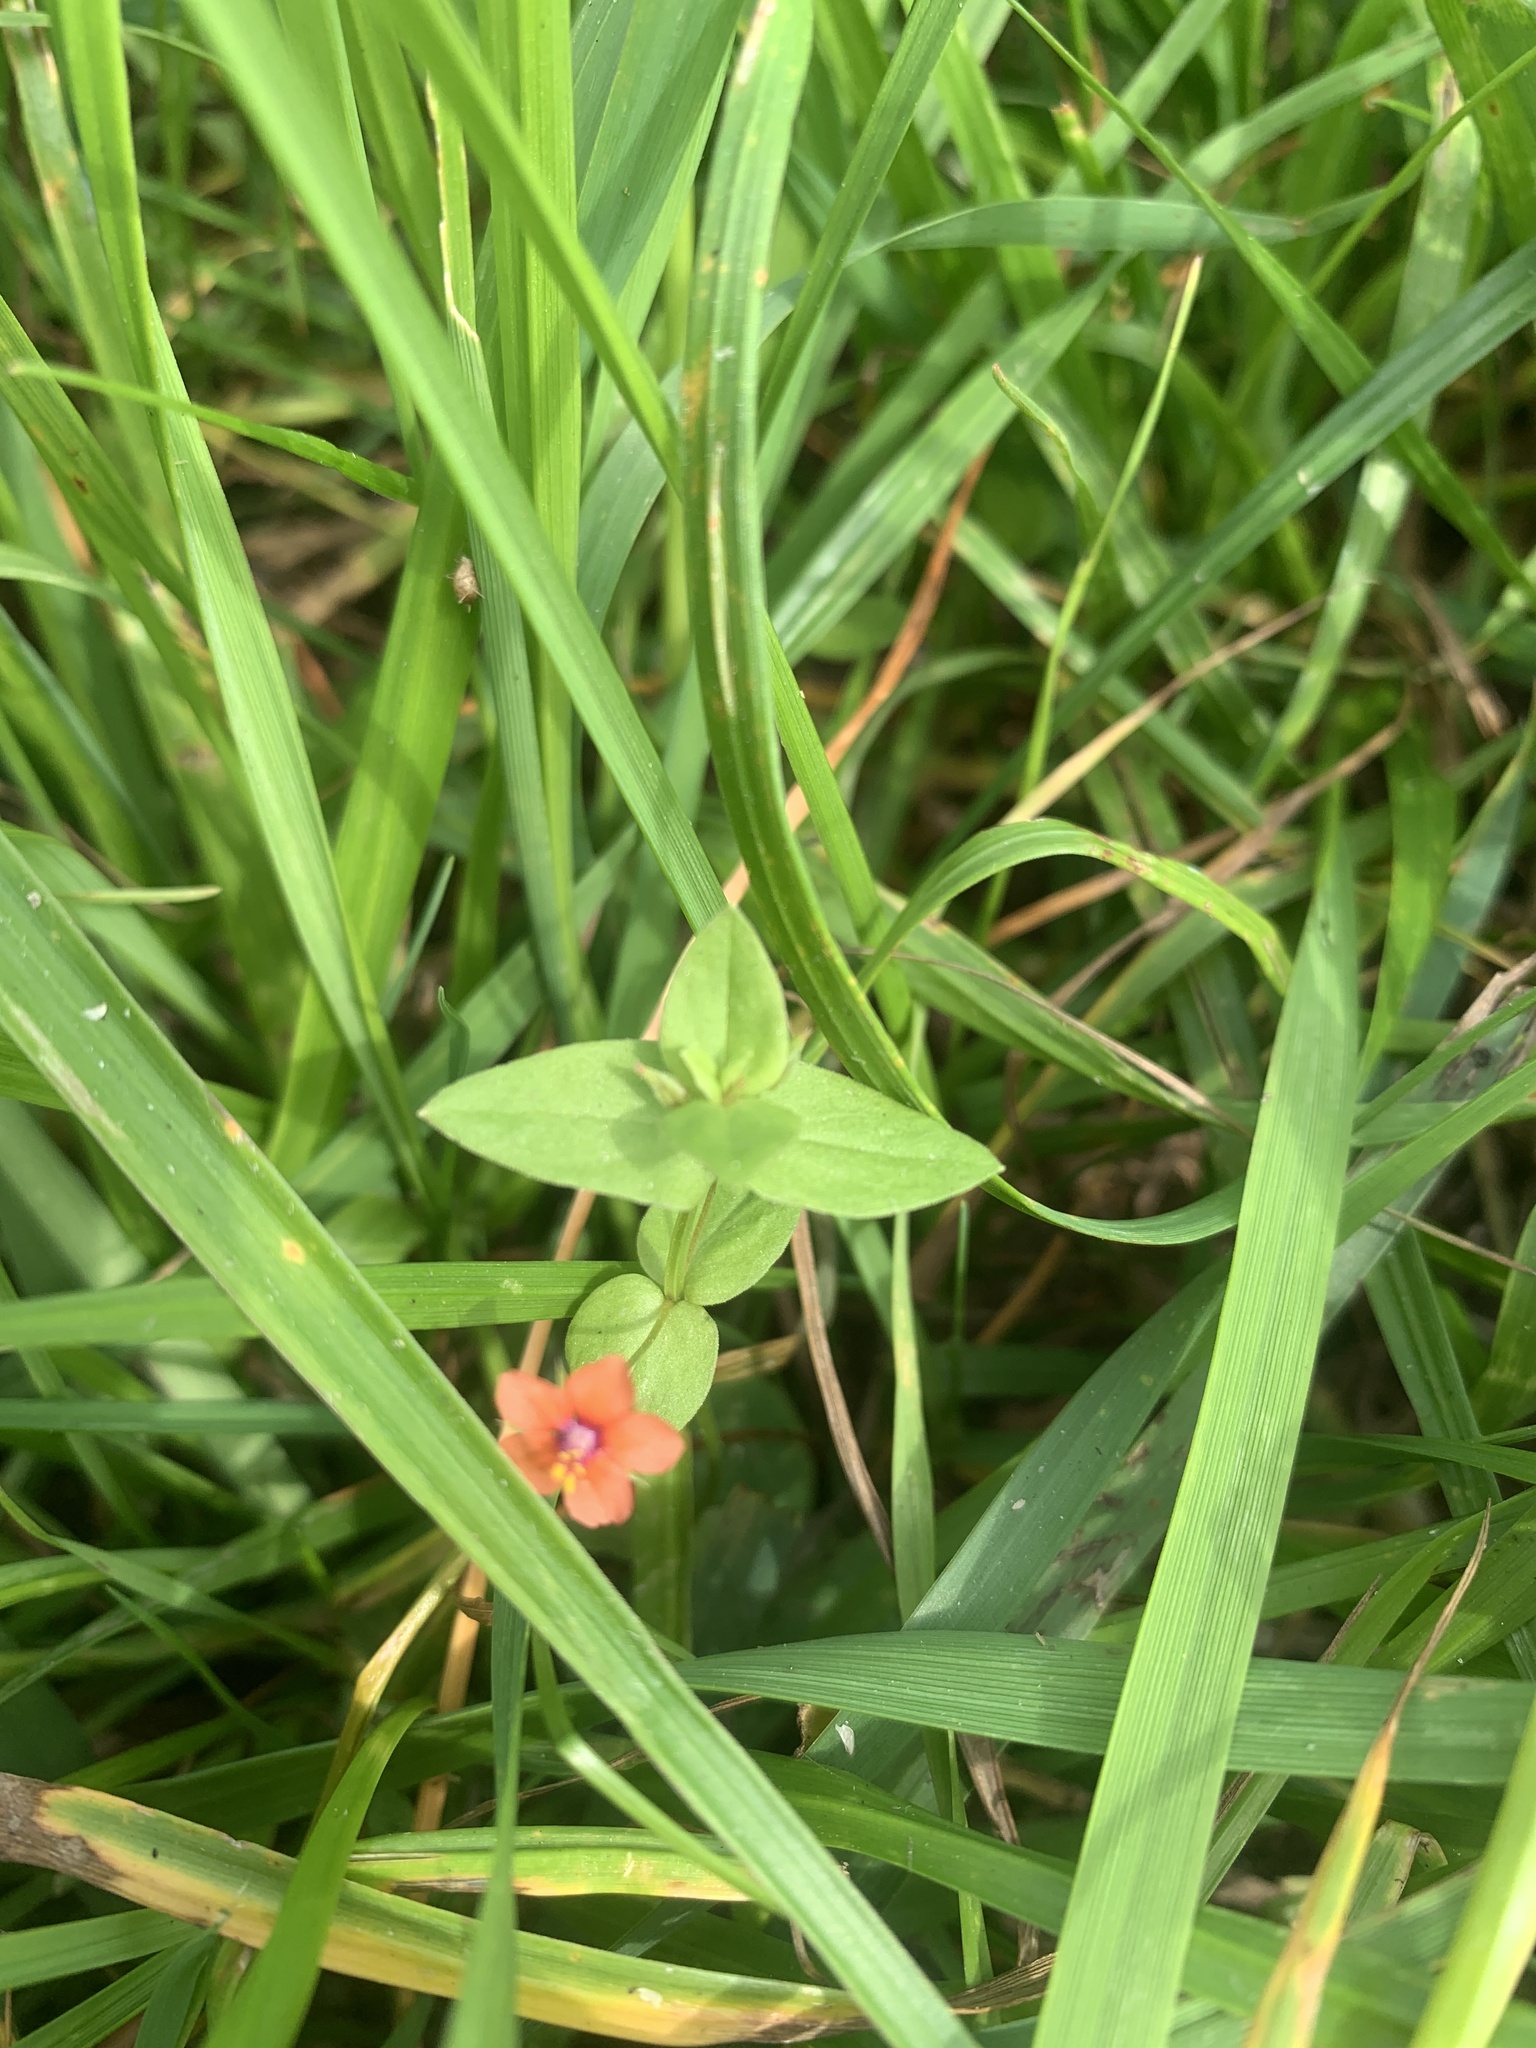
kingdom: Plantae
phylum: Tracheophyta
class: Magnoliopsida
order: Ericales
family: Primulaceae
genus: Lysimachia
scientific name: Lysimachia arvensis
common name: Scarlet pimpernel
